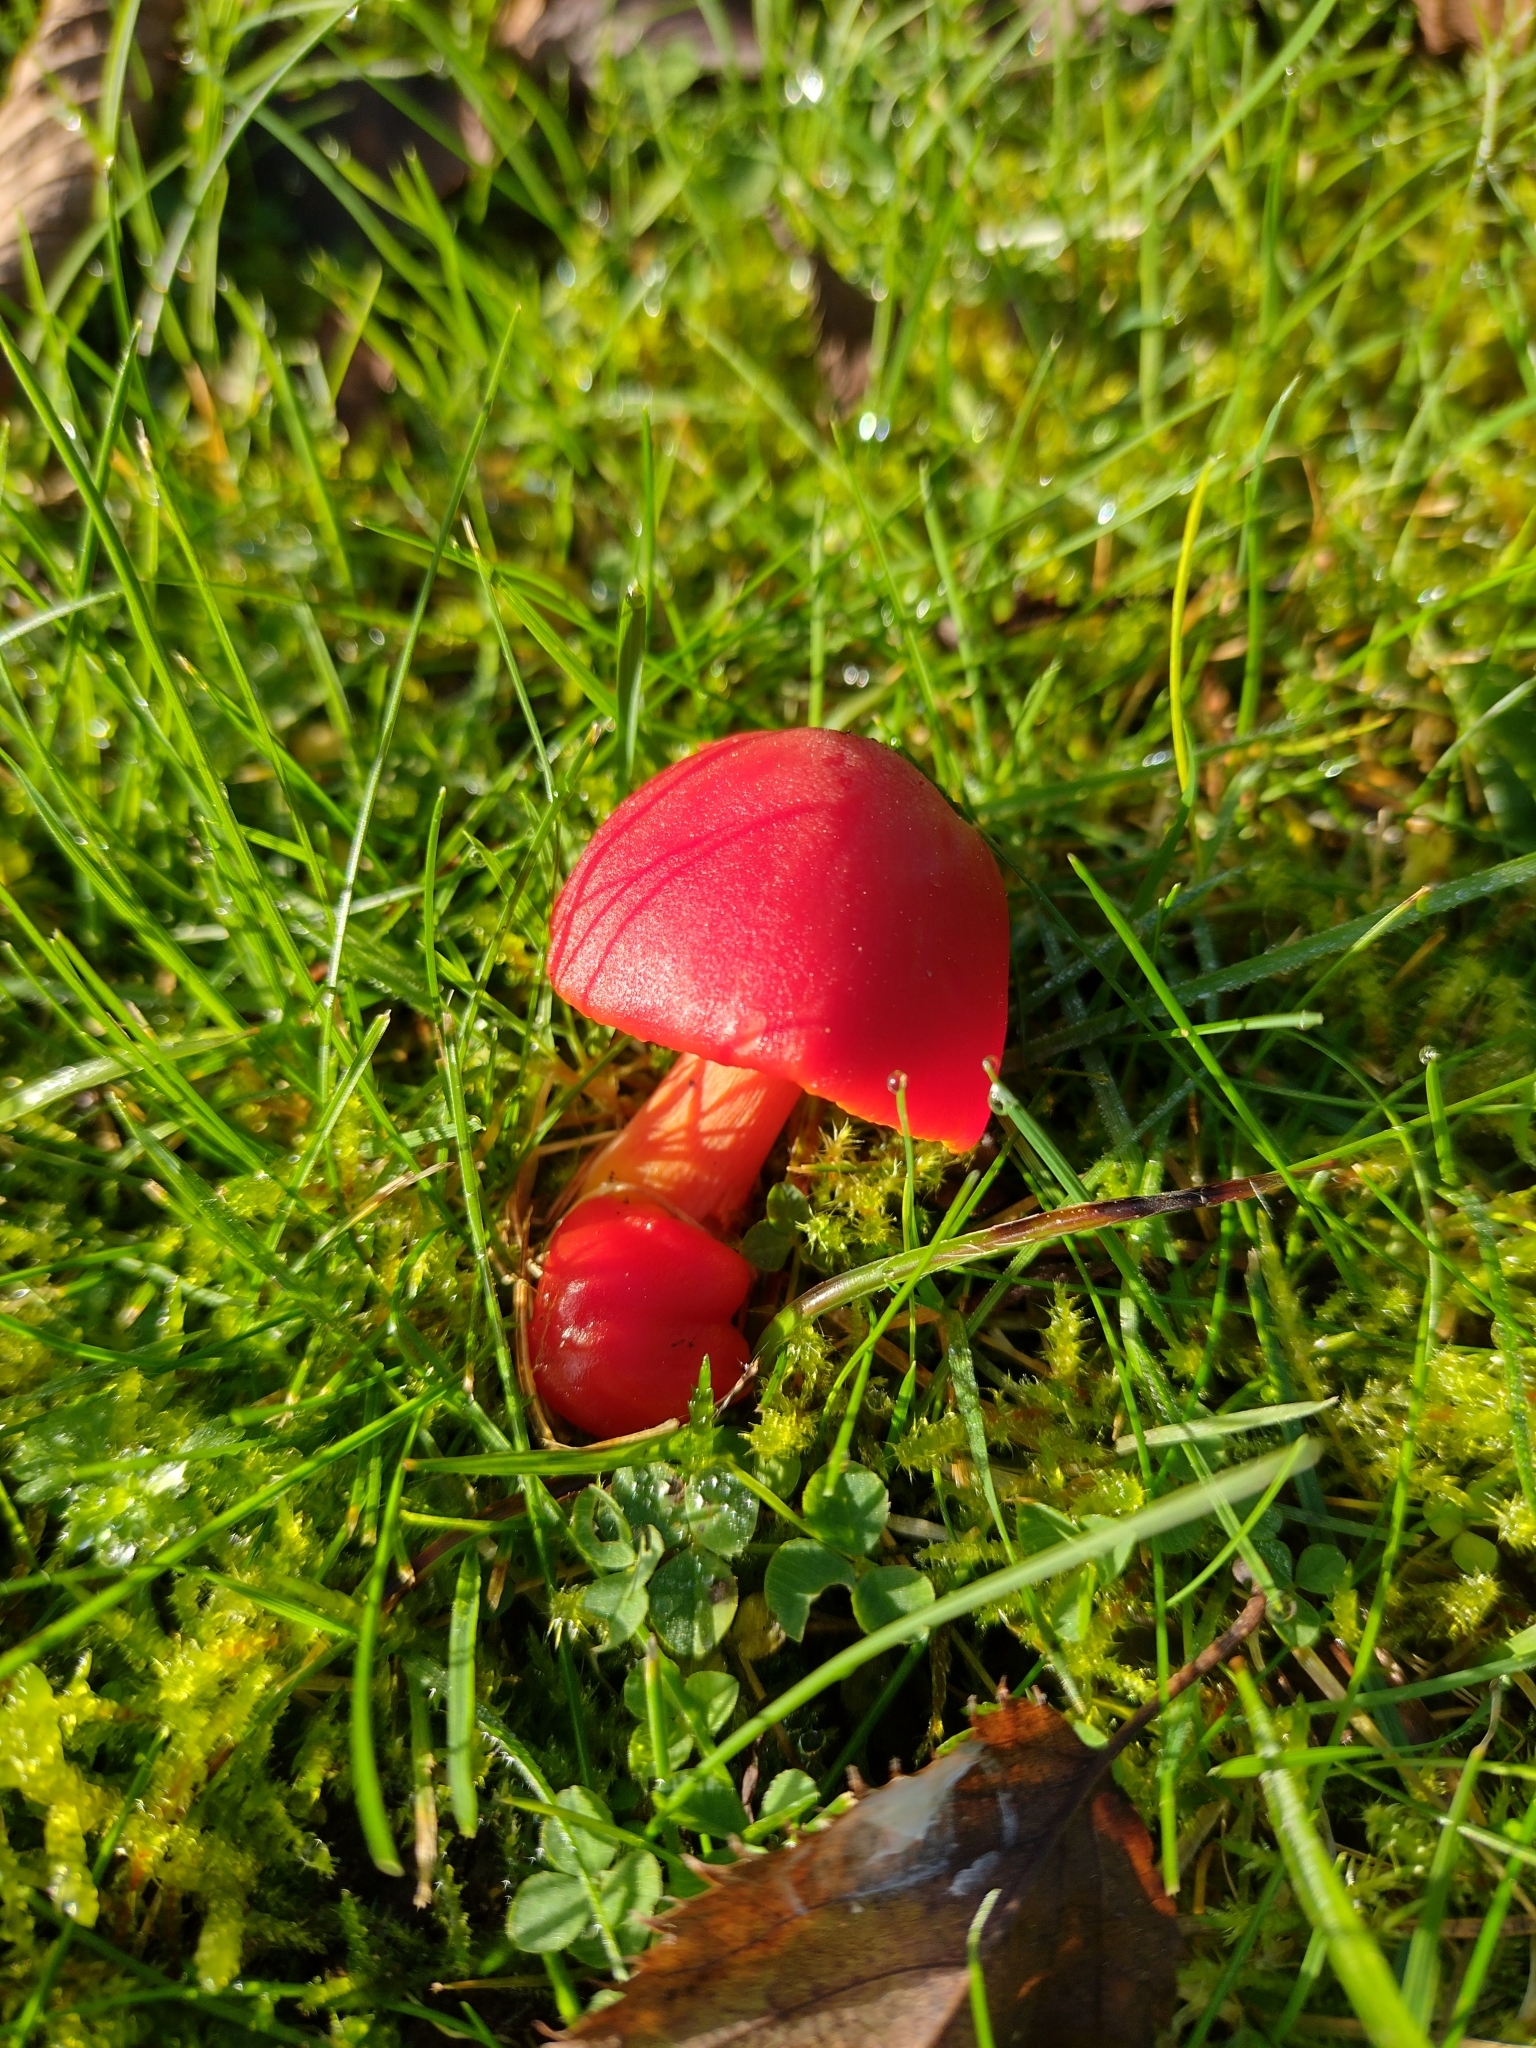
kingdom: Fungi
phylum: Basidiomycota
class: Agaricomycetes
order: Agaricales
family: Hygrophoraceae
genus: Hygrocybe
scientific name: Hygrocybe coccinea
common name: Scarlet hood
